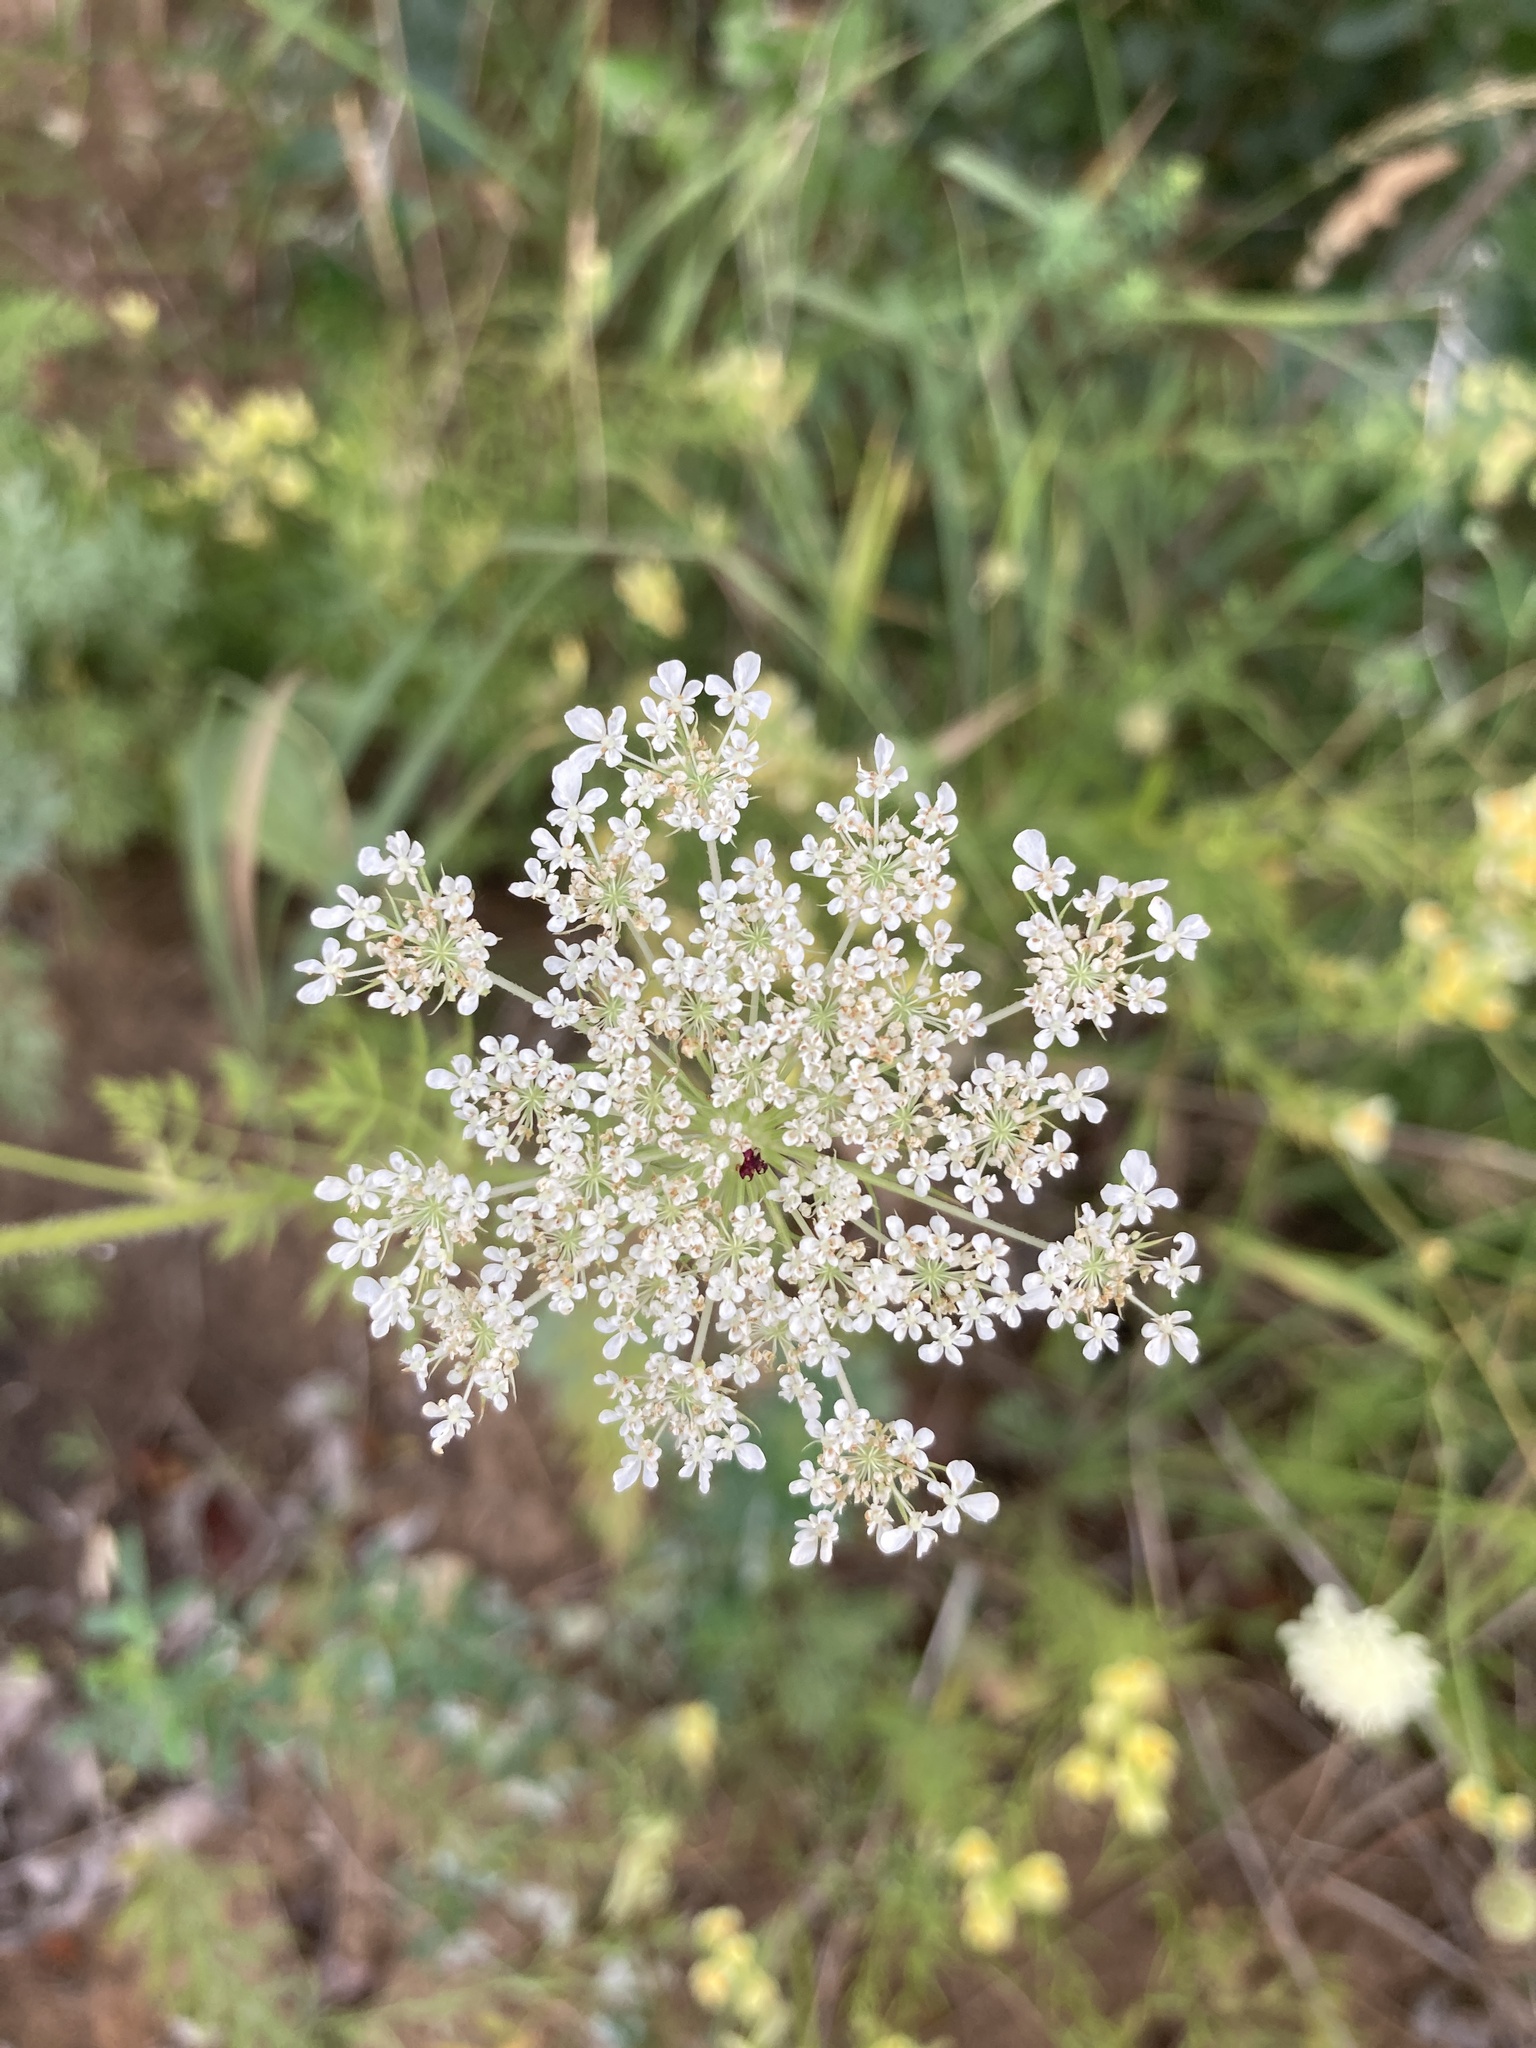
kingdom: Plantae
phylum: Tracheophyta
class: Magnoliopsida
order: Apiales
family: Apiaceae
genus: Daucus
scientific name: Daucus carota
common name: Wild carrot
